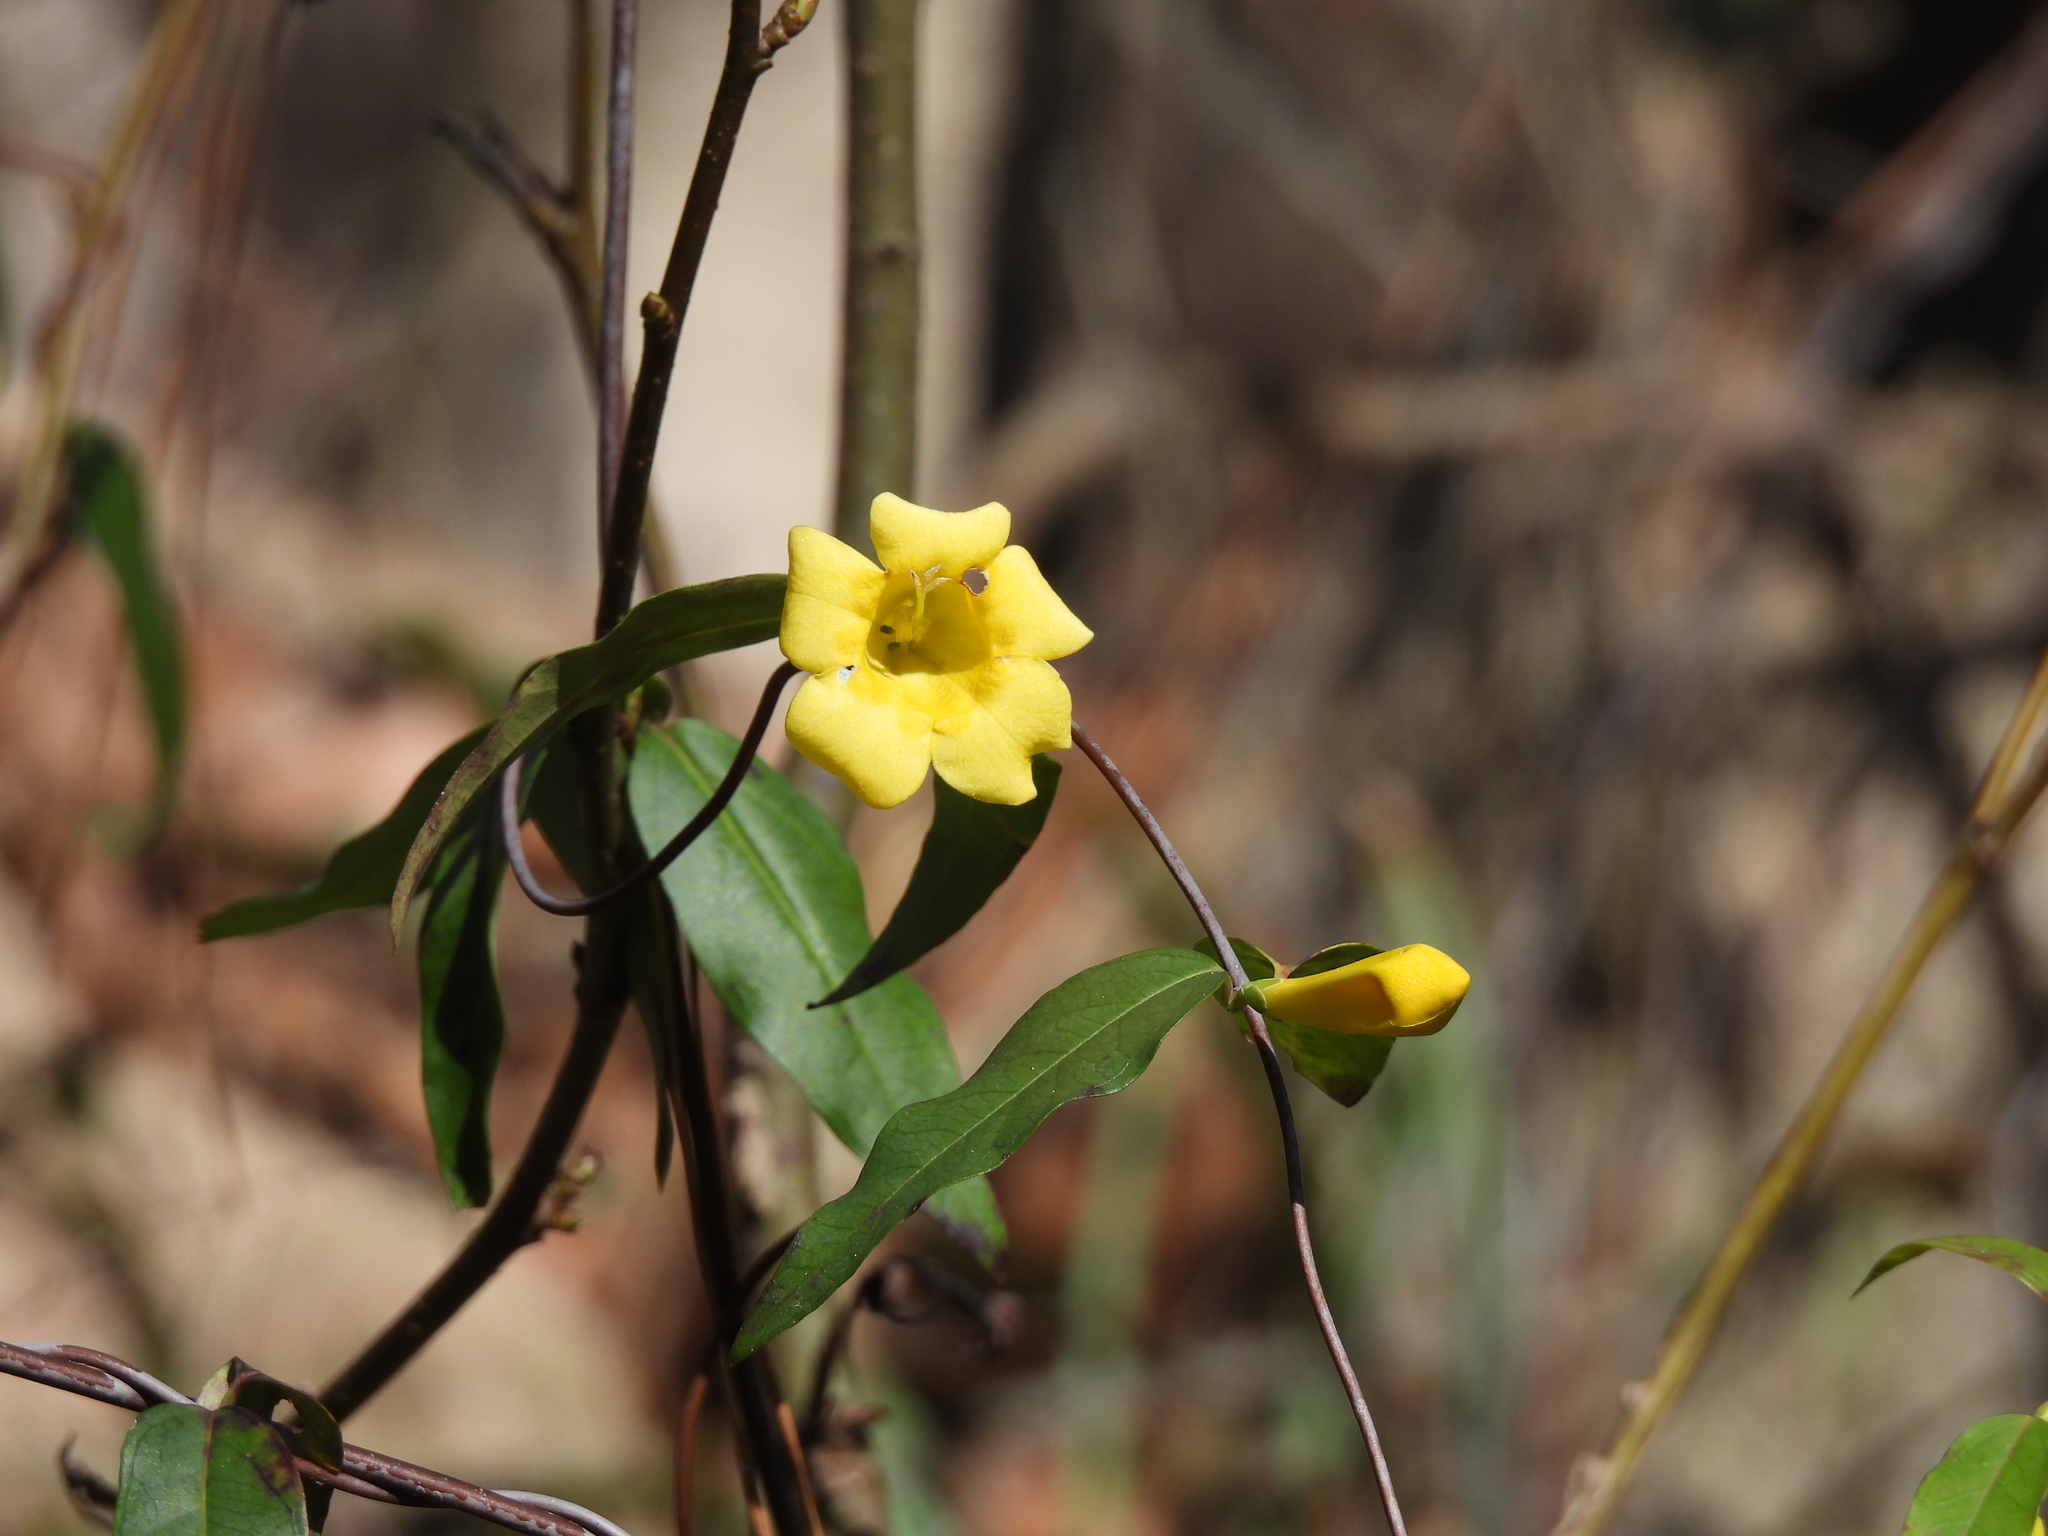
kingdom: Plantae
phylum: Tracheophyta
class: Magnoliopsida
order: Gentianales
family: Gelsemiaceae
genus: Gelsemium
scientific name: Gelsemium sempervirens
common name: Carolina-jasmine
